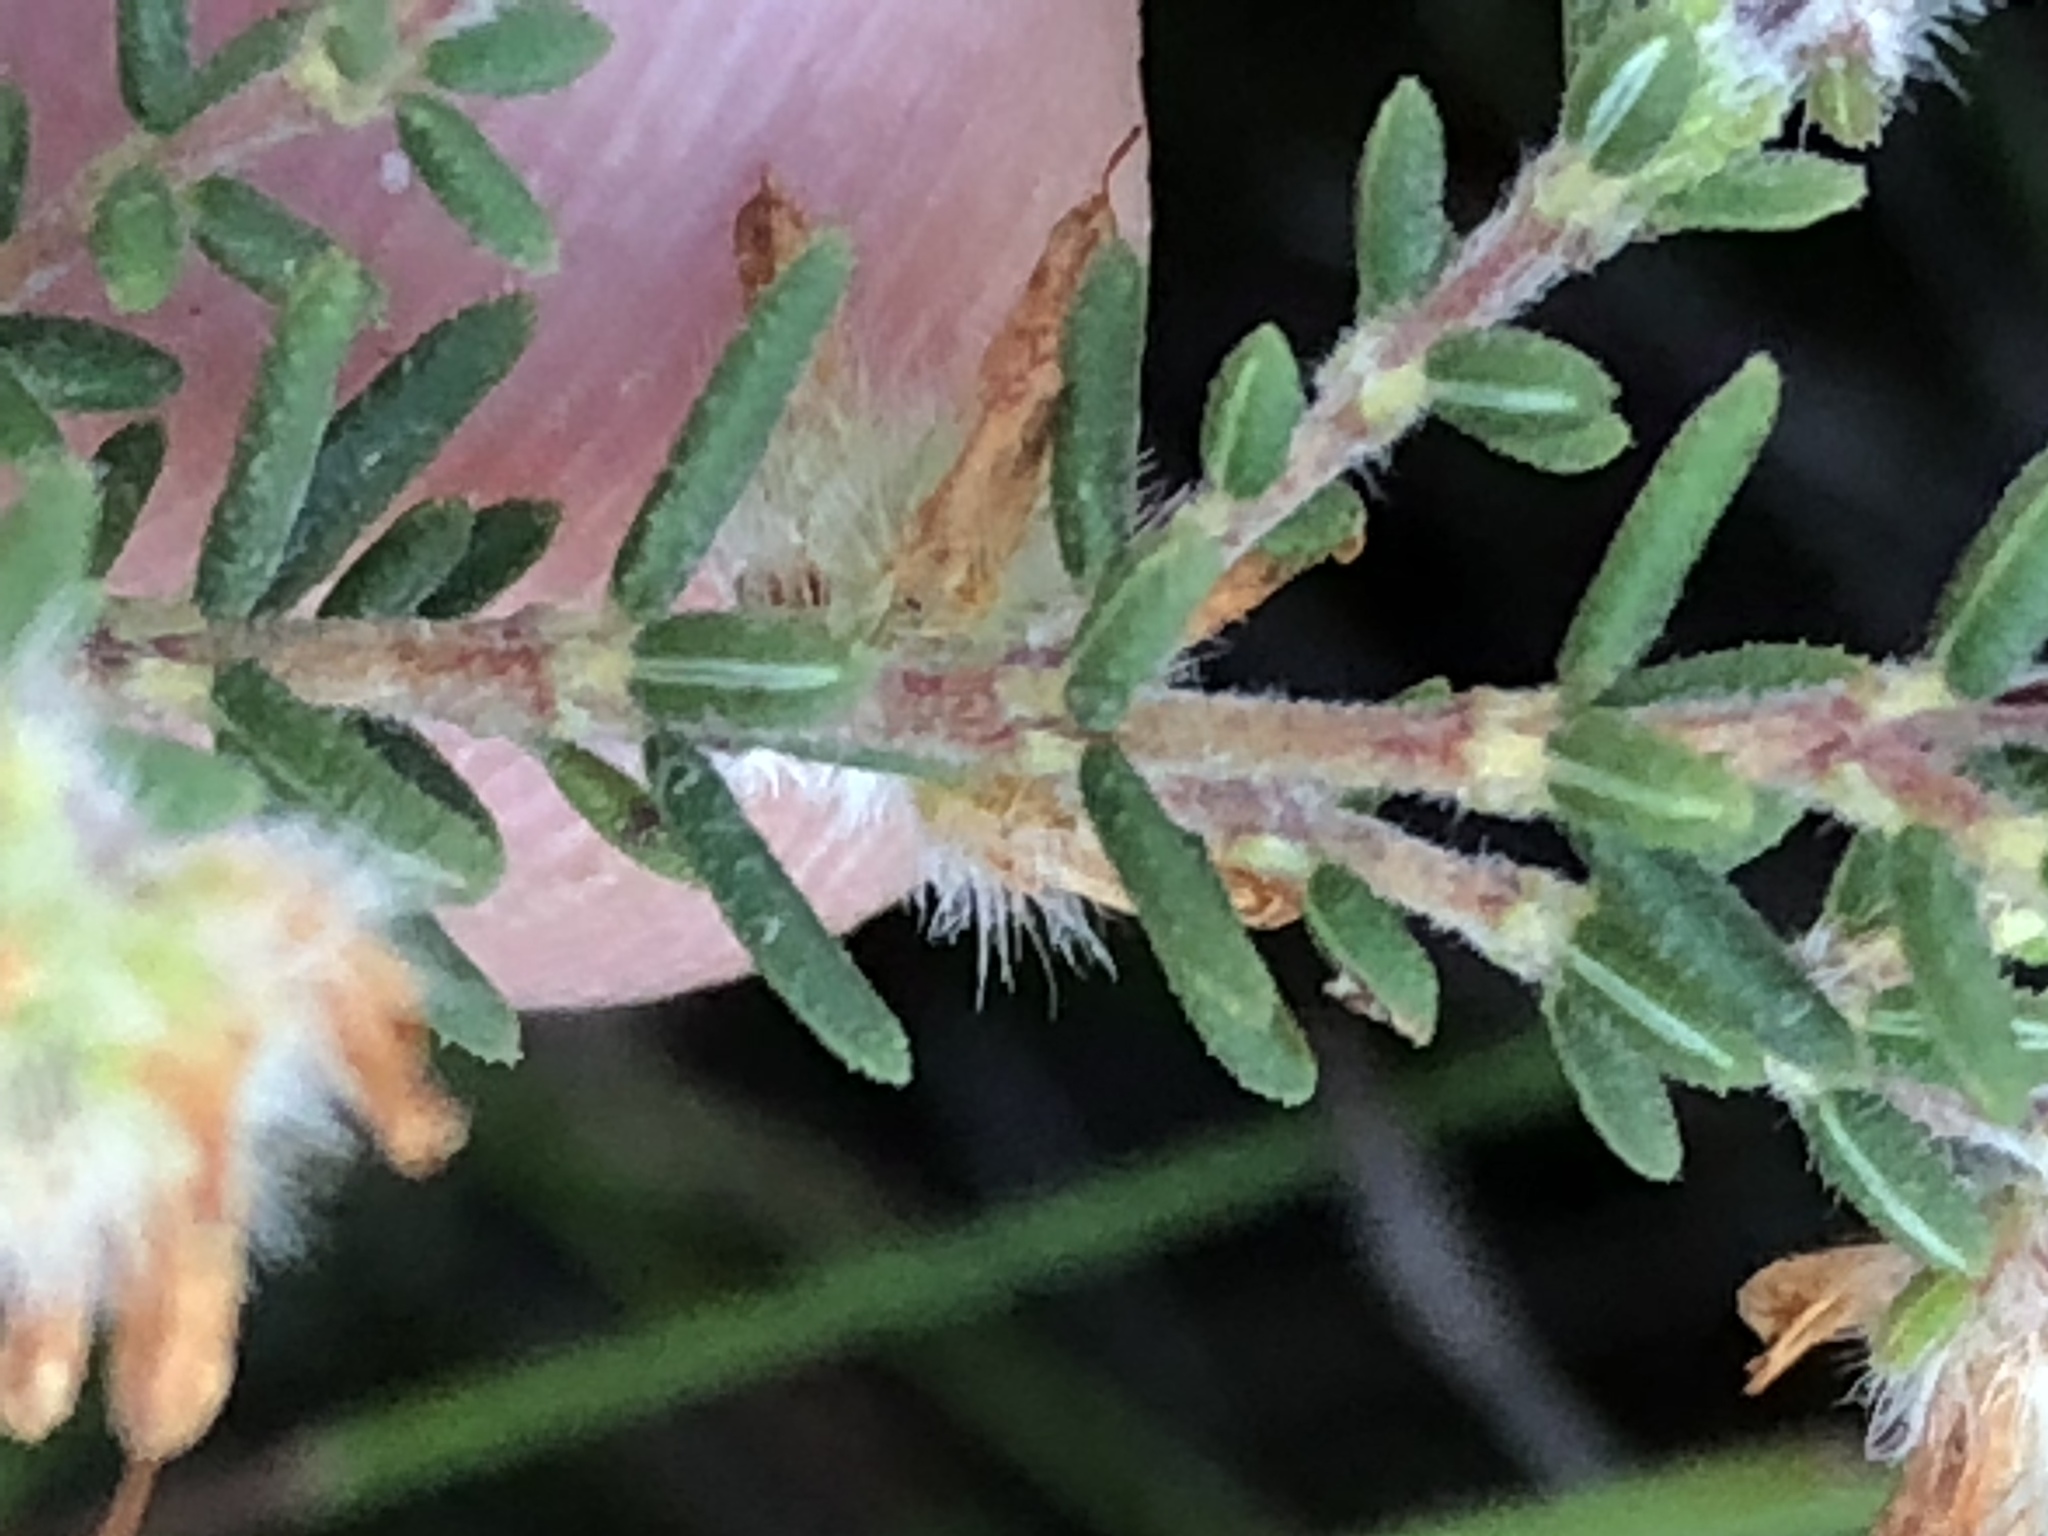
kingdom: Plantae
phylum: Tracheophyta
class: Magnoliopsida
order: Ericales
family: Ericaceae
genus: Erica
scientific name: Erica eriocephala
